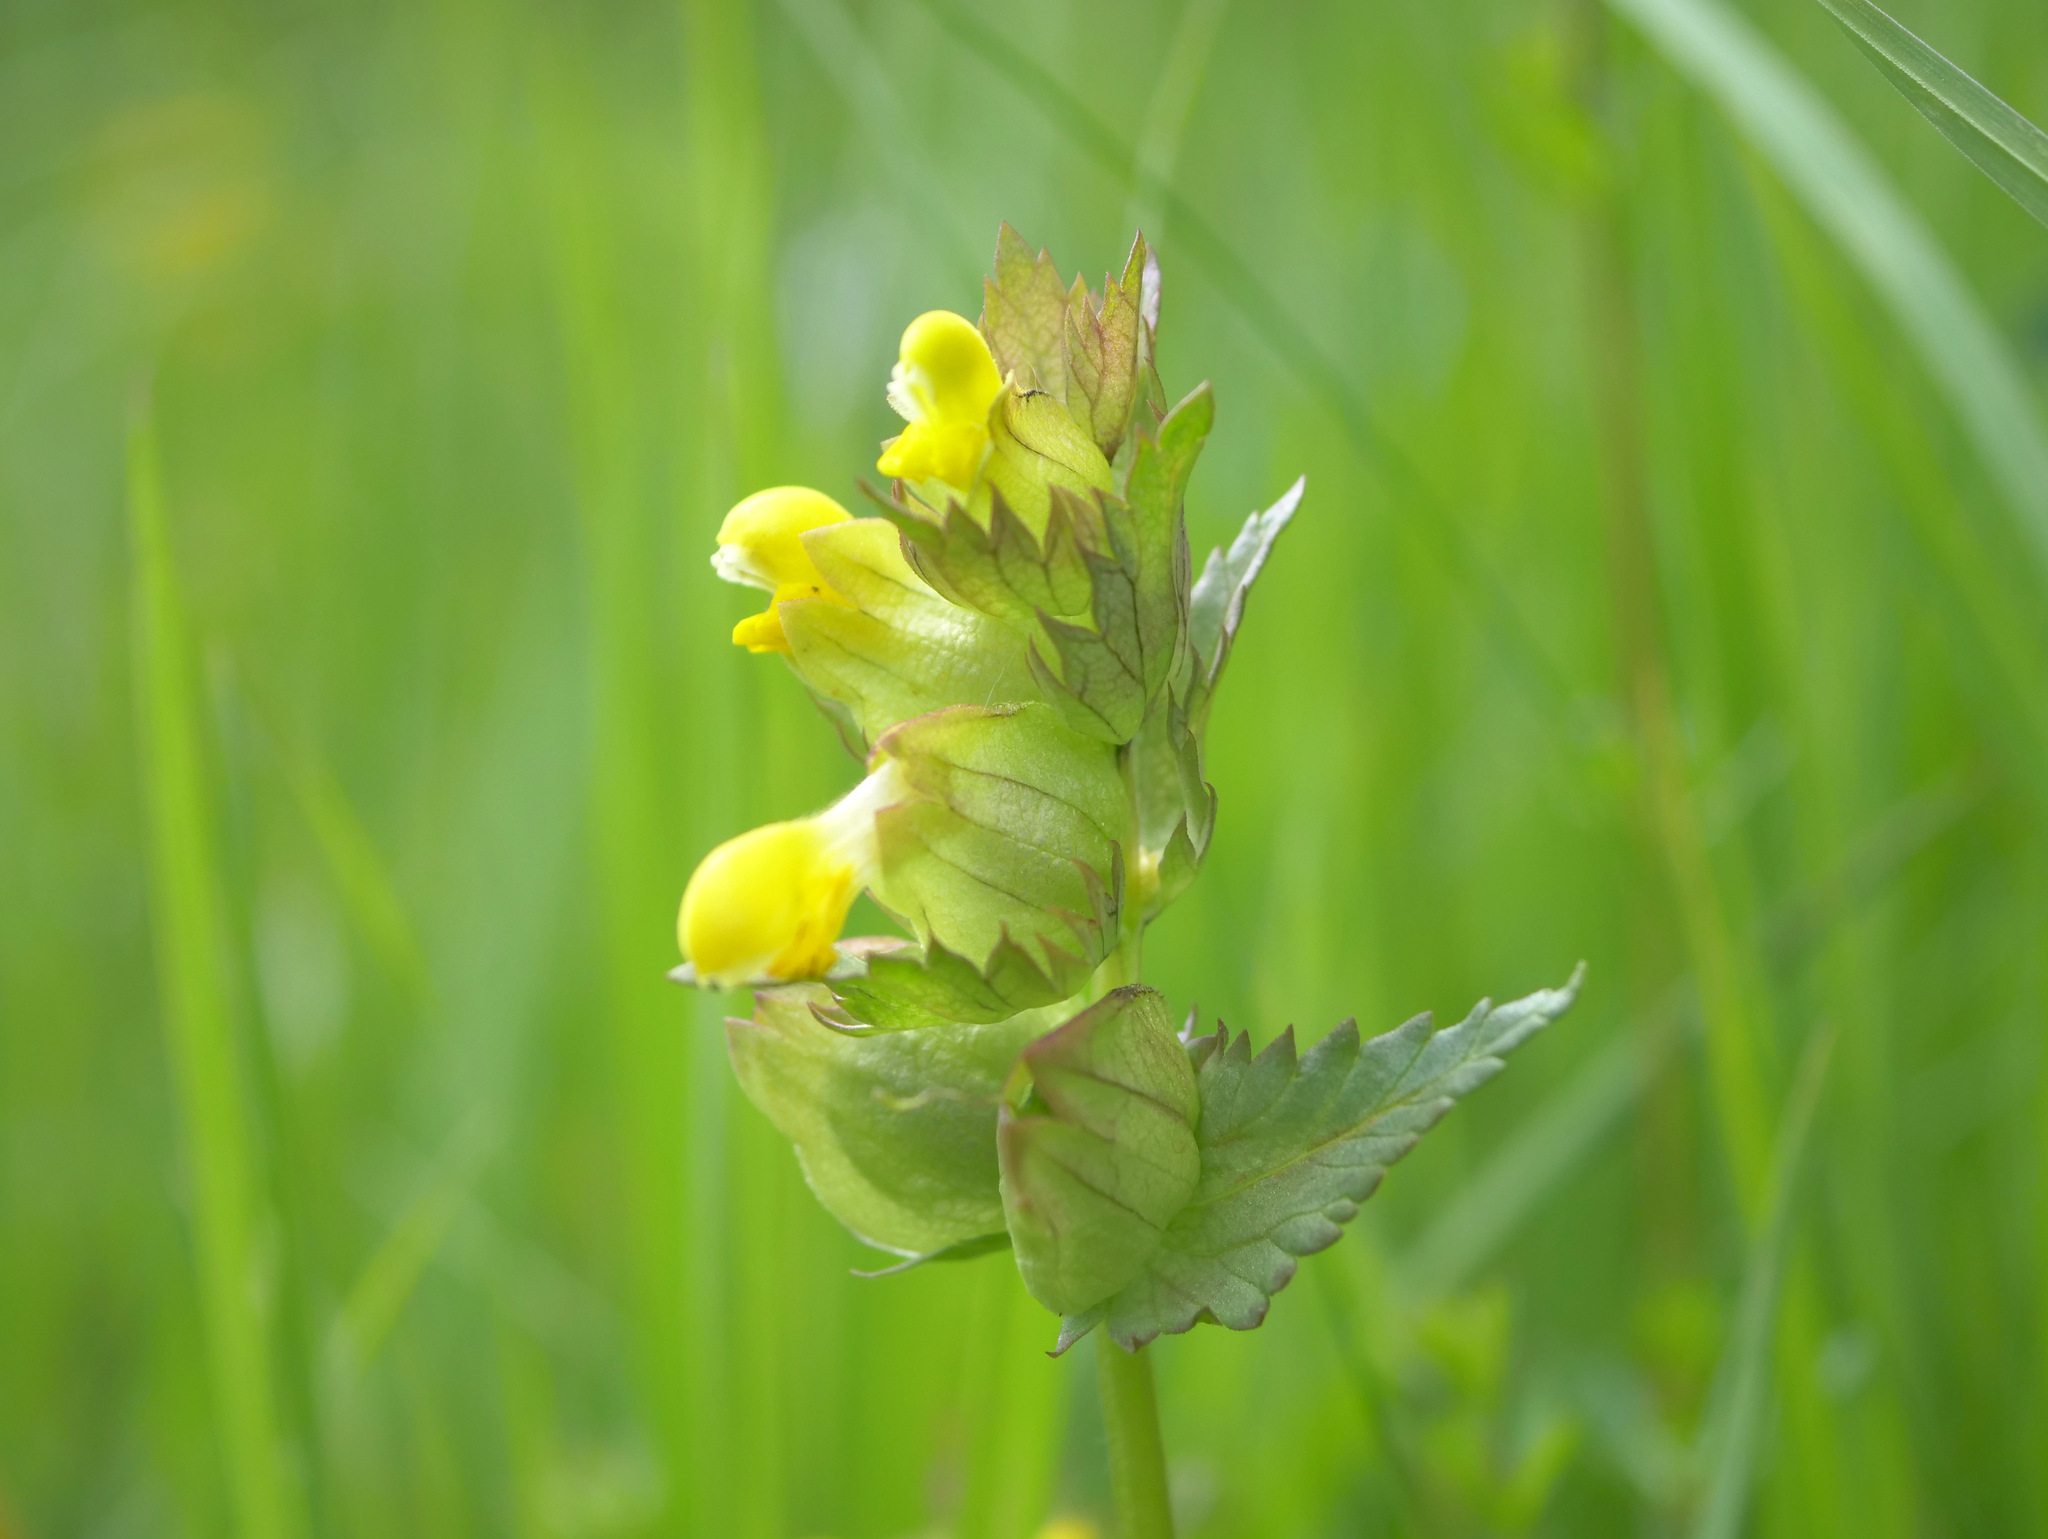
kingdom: Plantae
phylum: Tracheophyta
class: Magnoliopsida
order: Lamiales
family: Orobanchaceae
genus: Rhinanthus
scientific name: Rhinanthus minor
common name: Yellow-rattle
